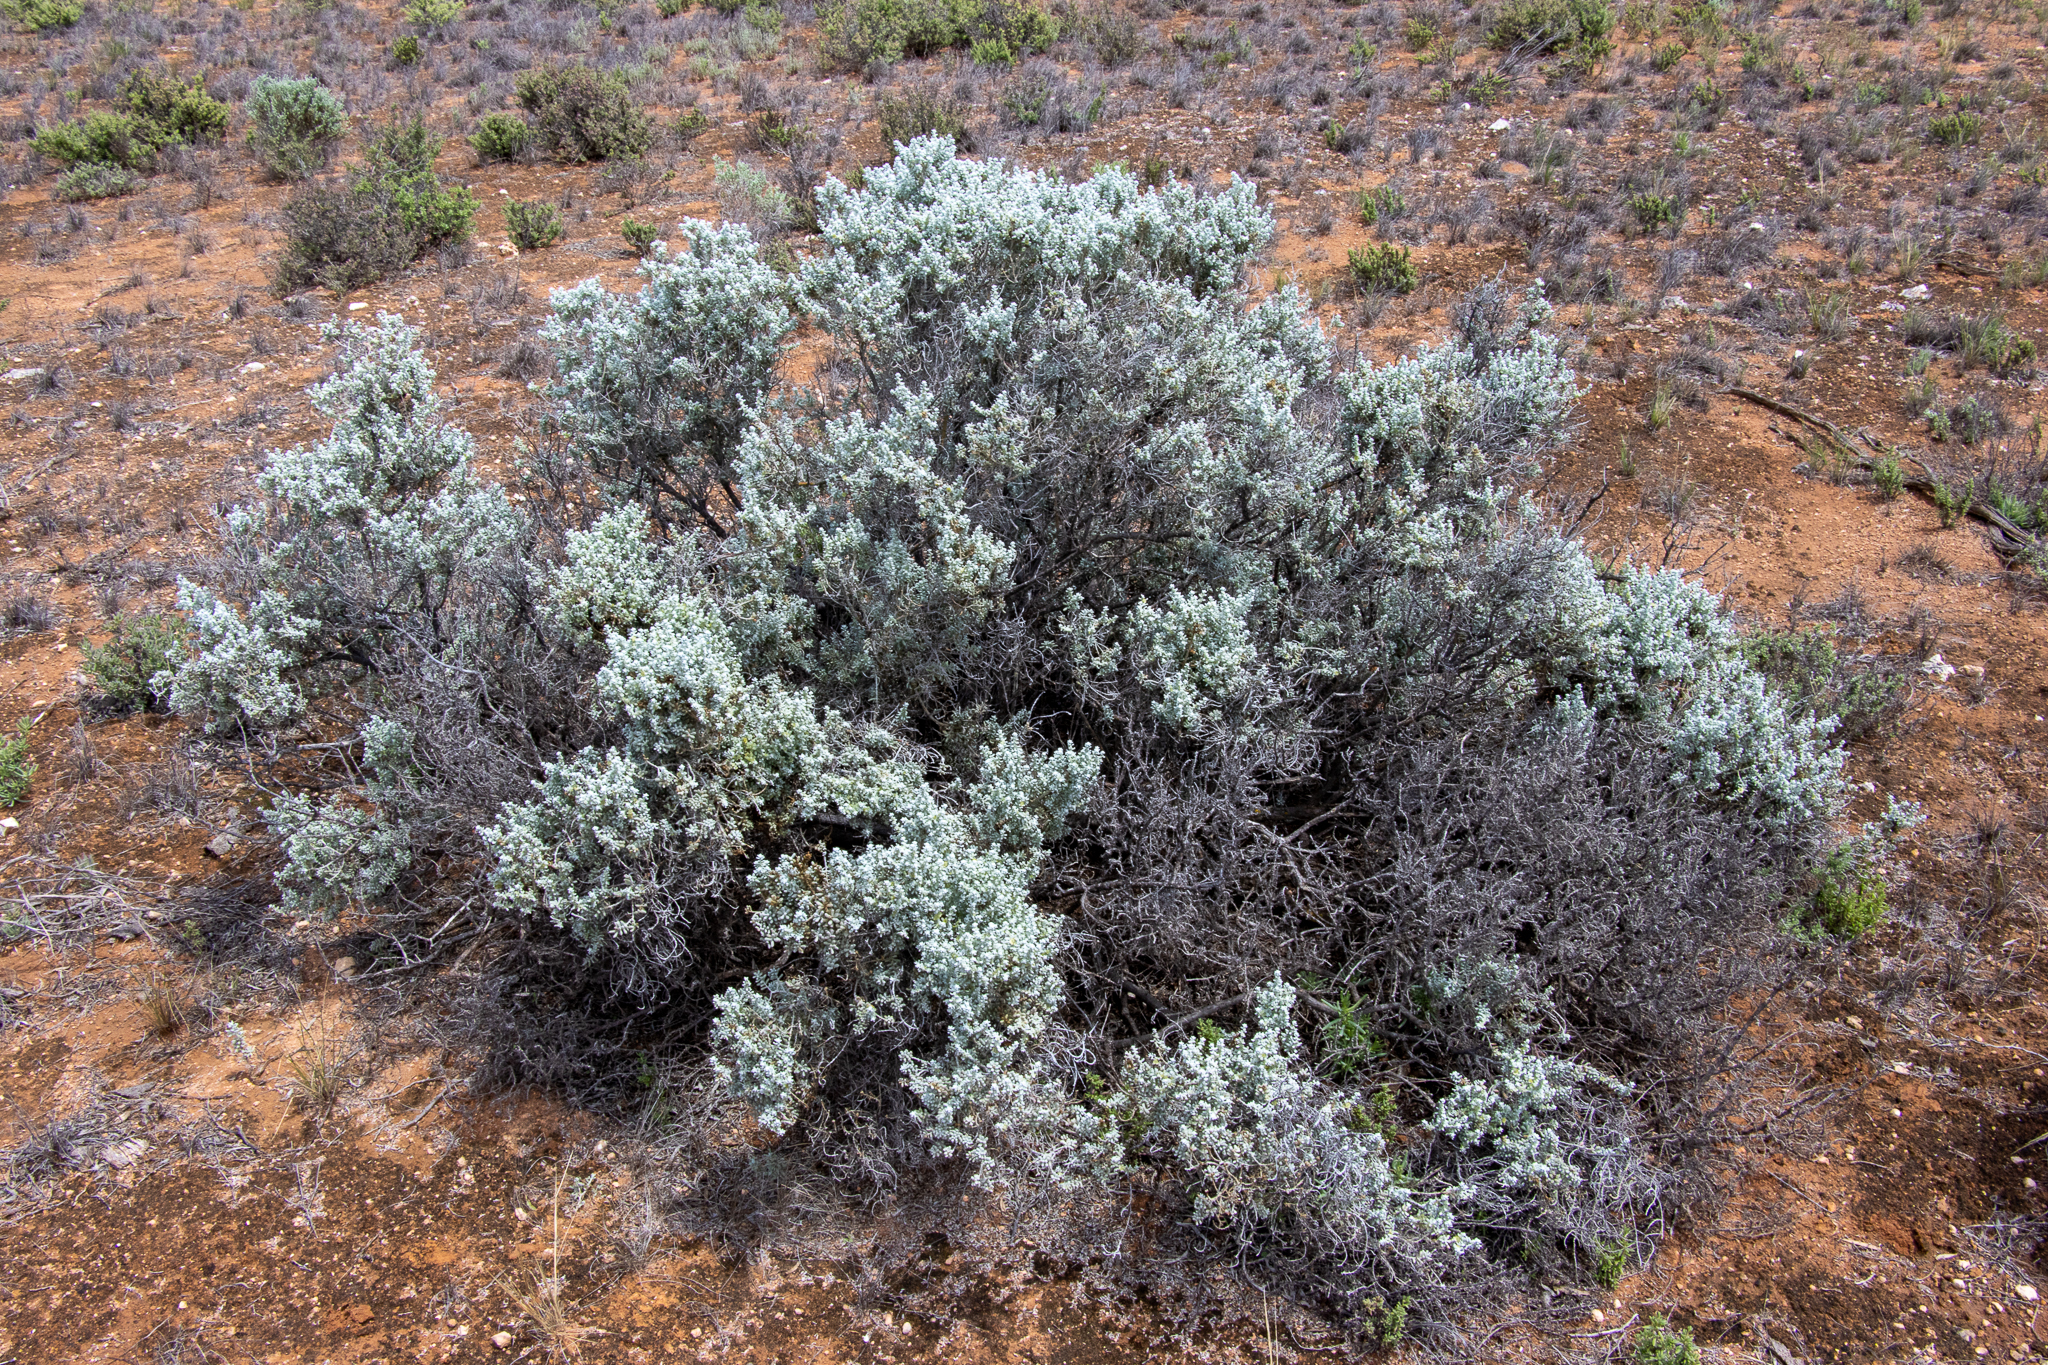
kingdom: Plantae
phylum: Tracheophyta
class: Magnoliopsida
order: Caryophyllales
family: Amaranthaceae
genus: Maireana
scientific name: Maireana sedifolia
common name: Hoary bluebush
